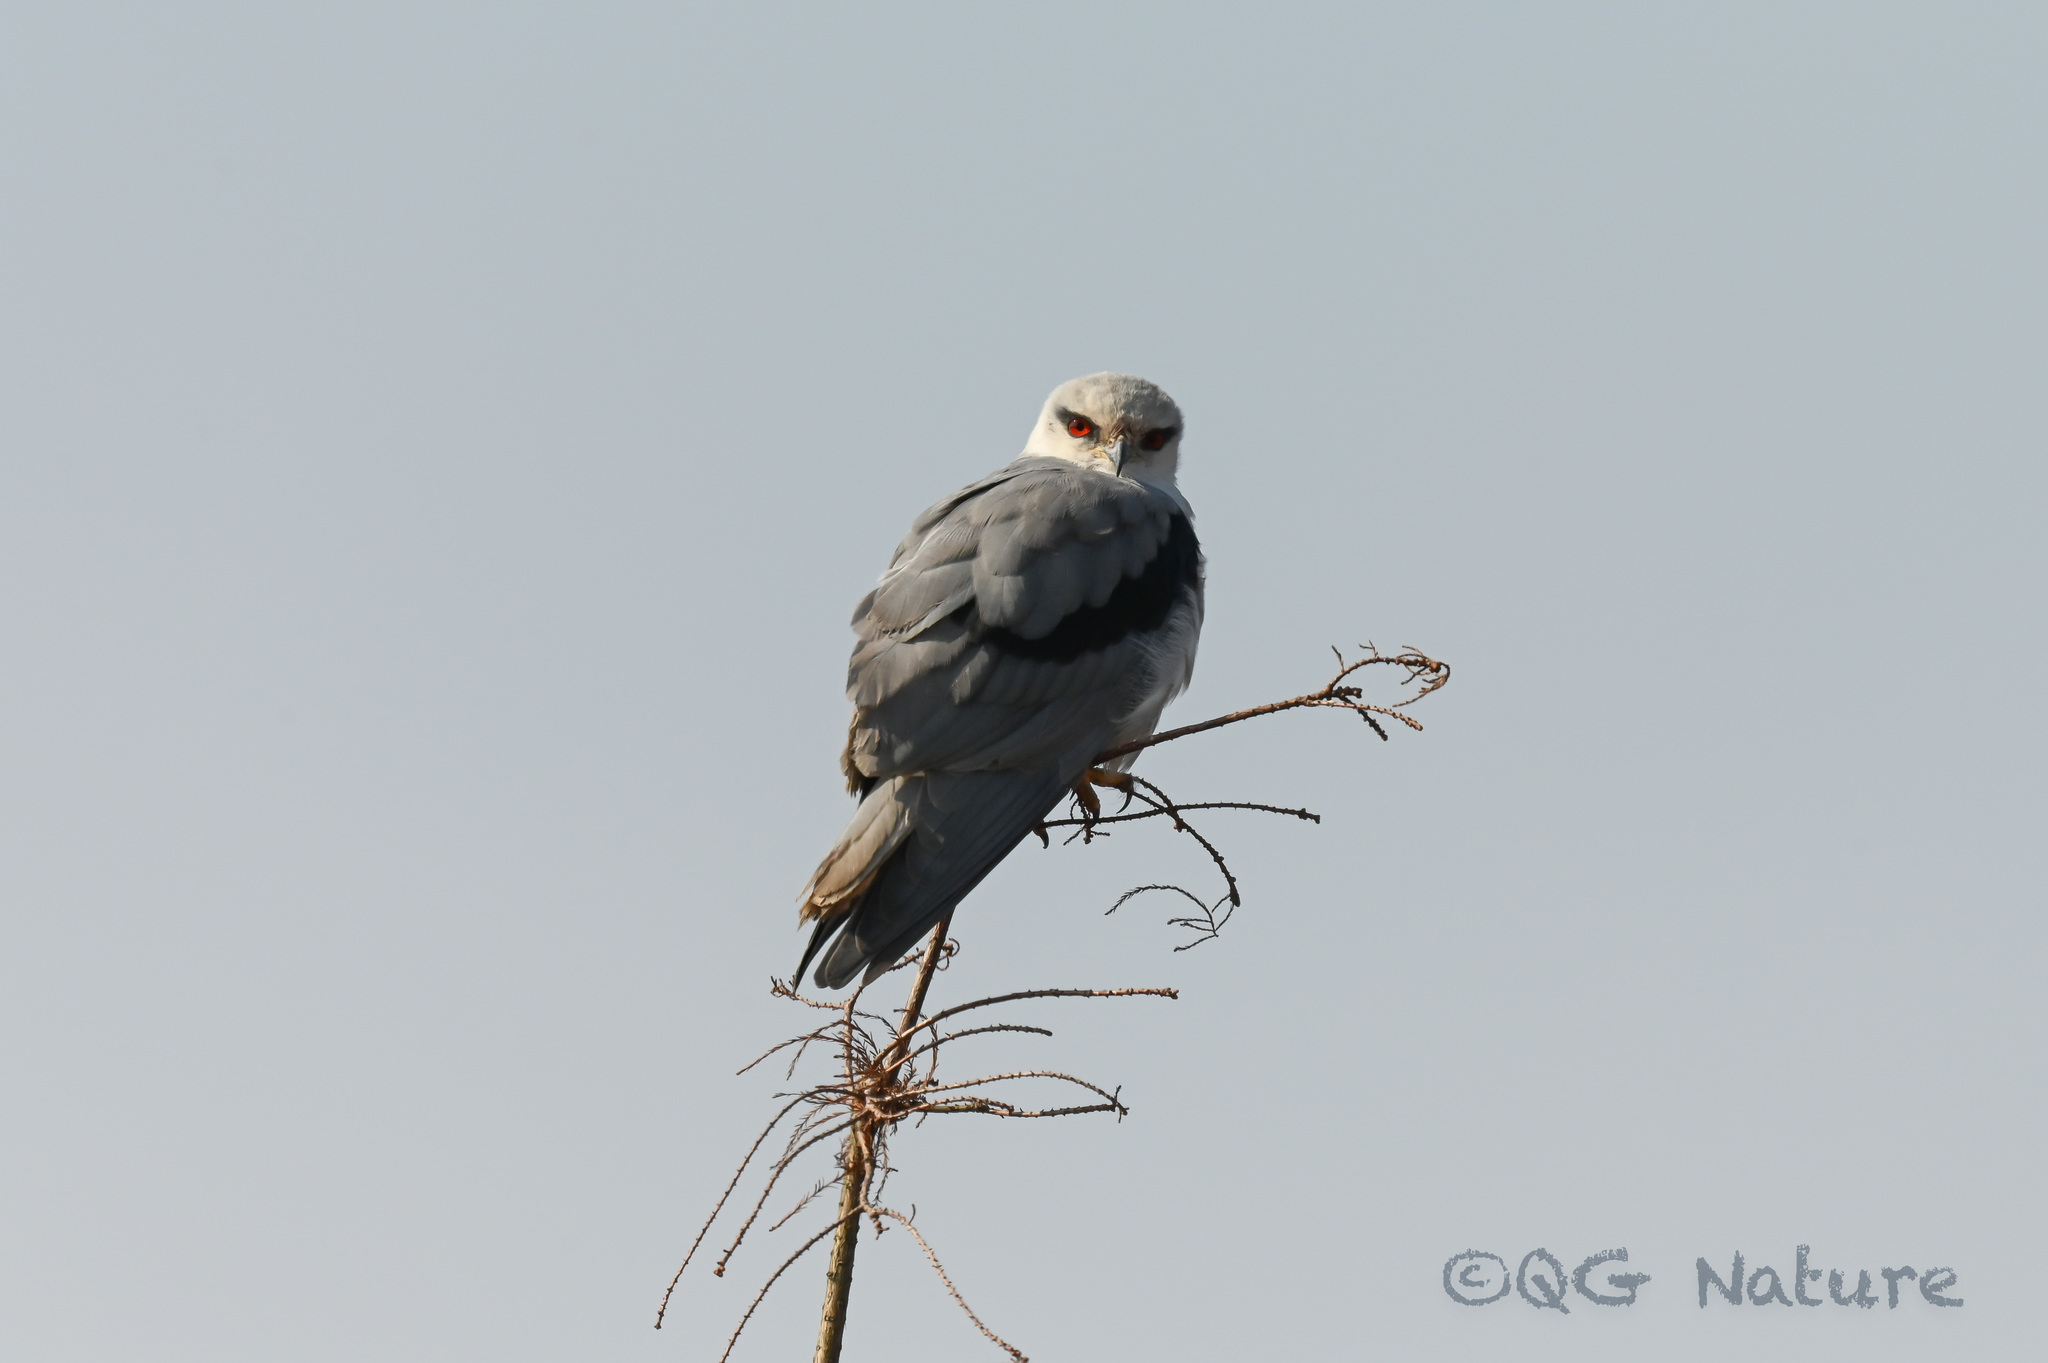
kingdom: Animalia
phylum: Chordata
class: Aves
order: Accipitriformes
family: Accipitridae
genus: Elanus
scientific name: Elanus caeruleus
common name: Black-winged kite
